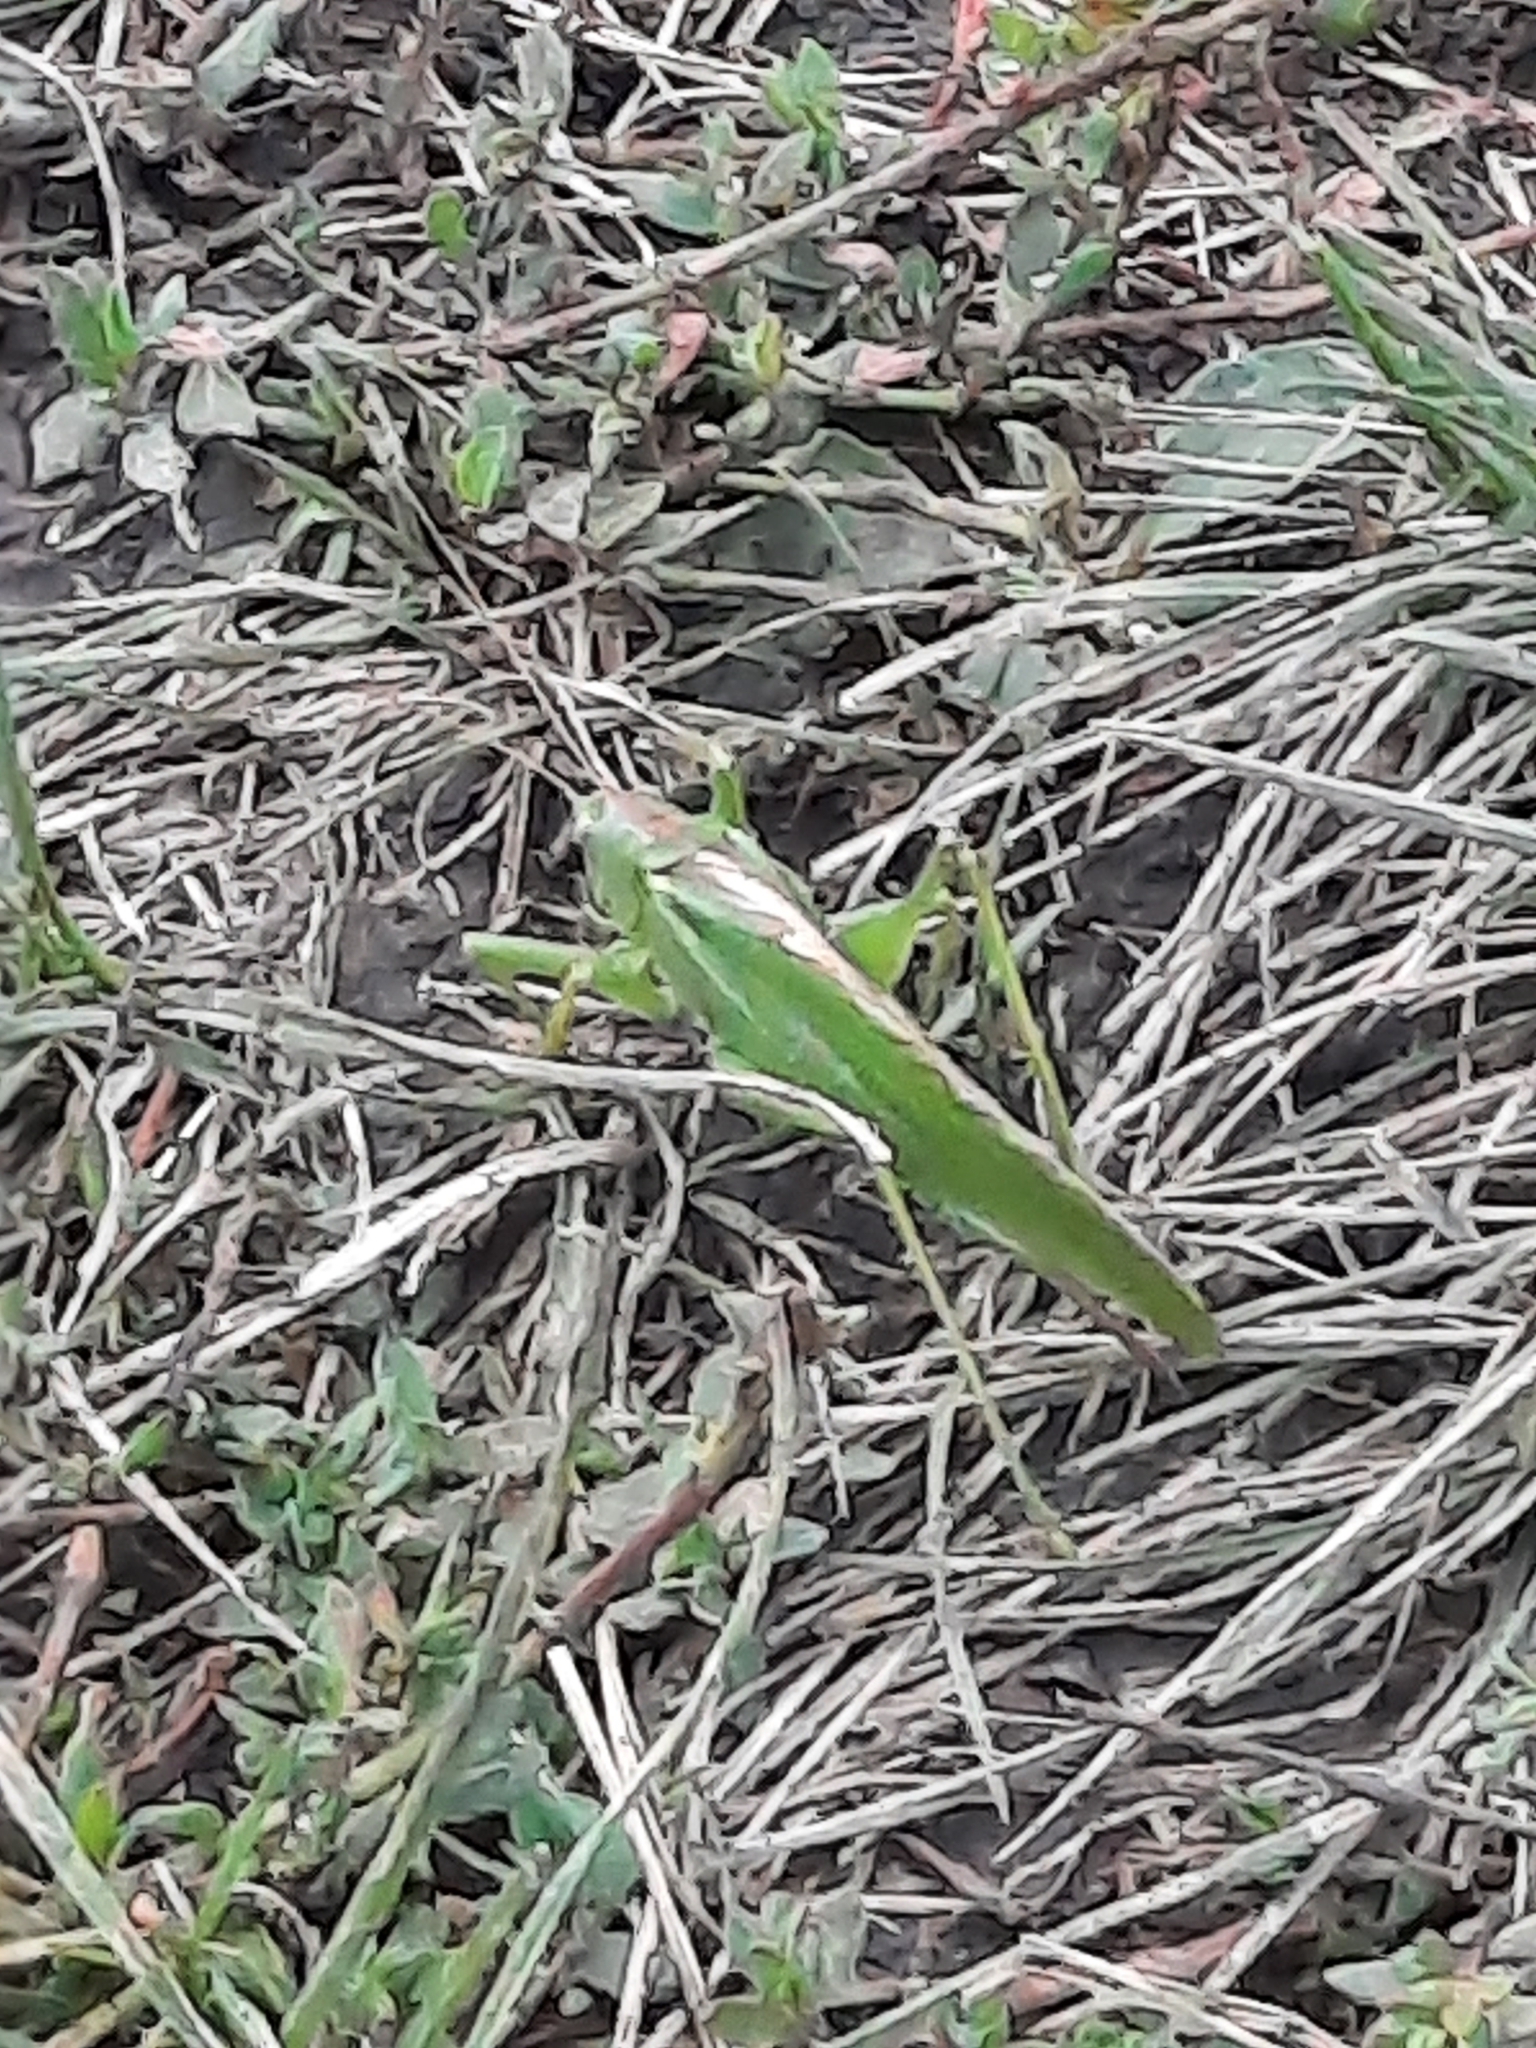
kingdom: Animalia
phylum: Arthropoda
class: Insecta
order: Orthoptera
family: Tettigoniidae
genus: Tettigonia
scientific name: Tettigonia viridissima
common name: Great green bush-cricket
